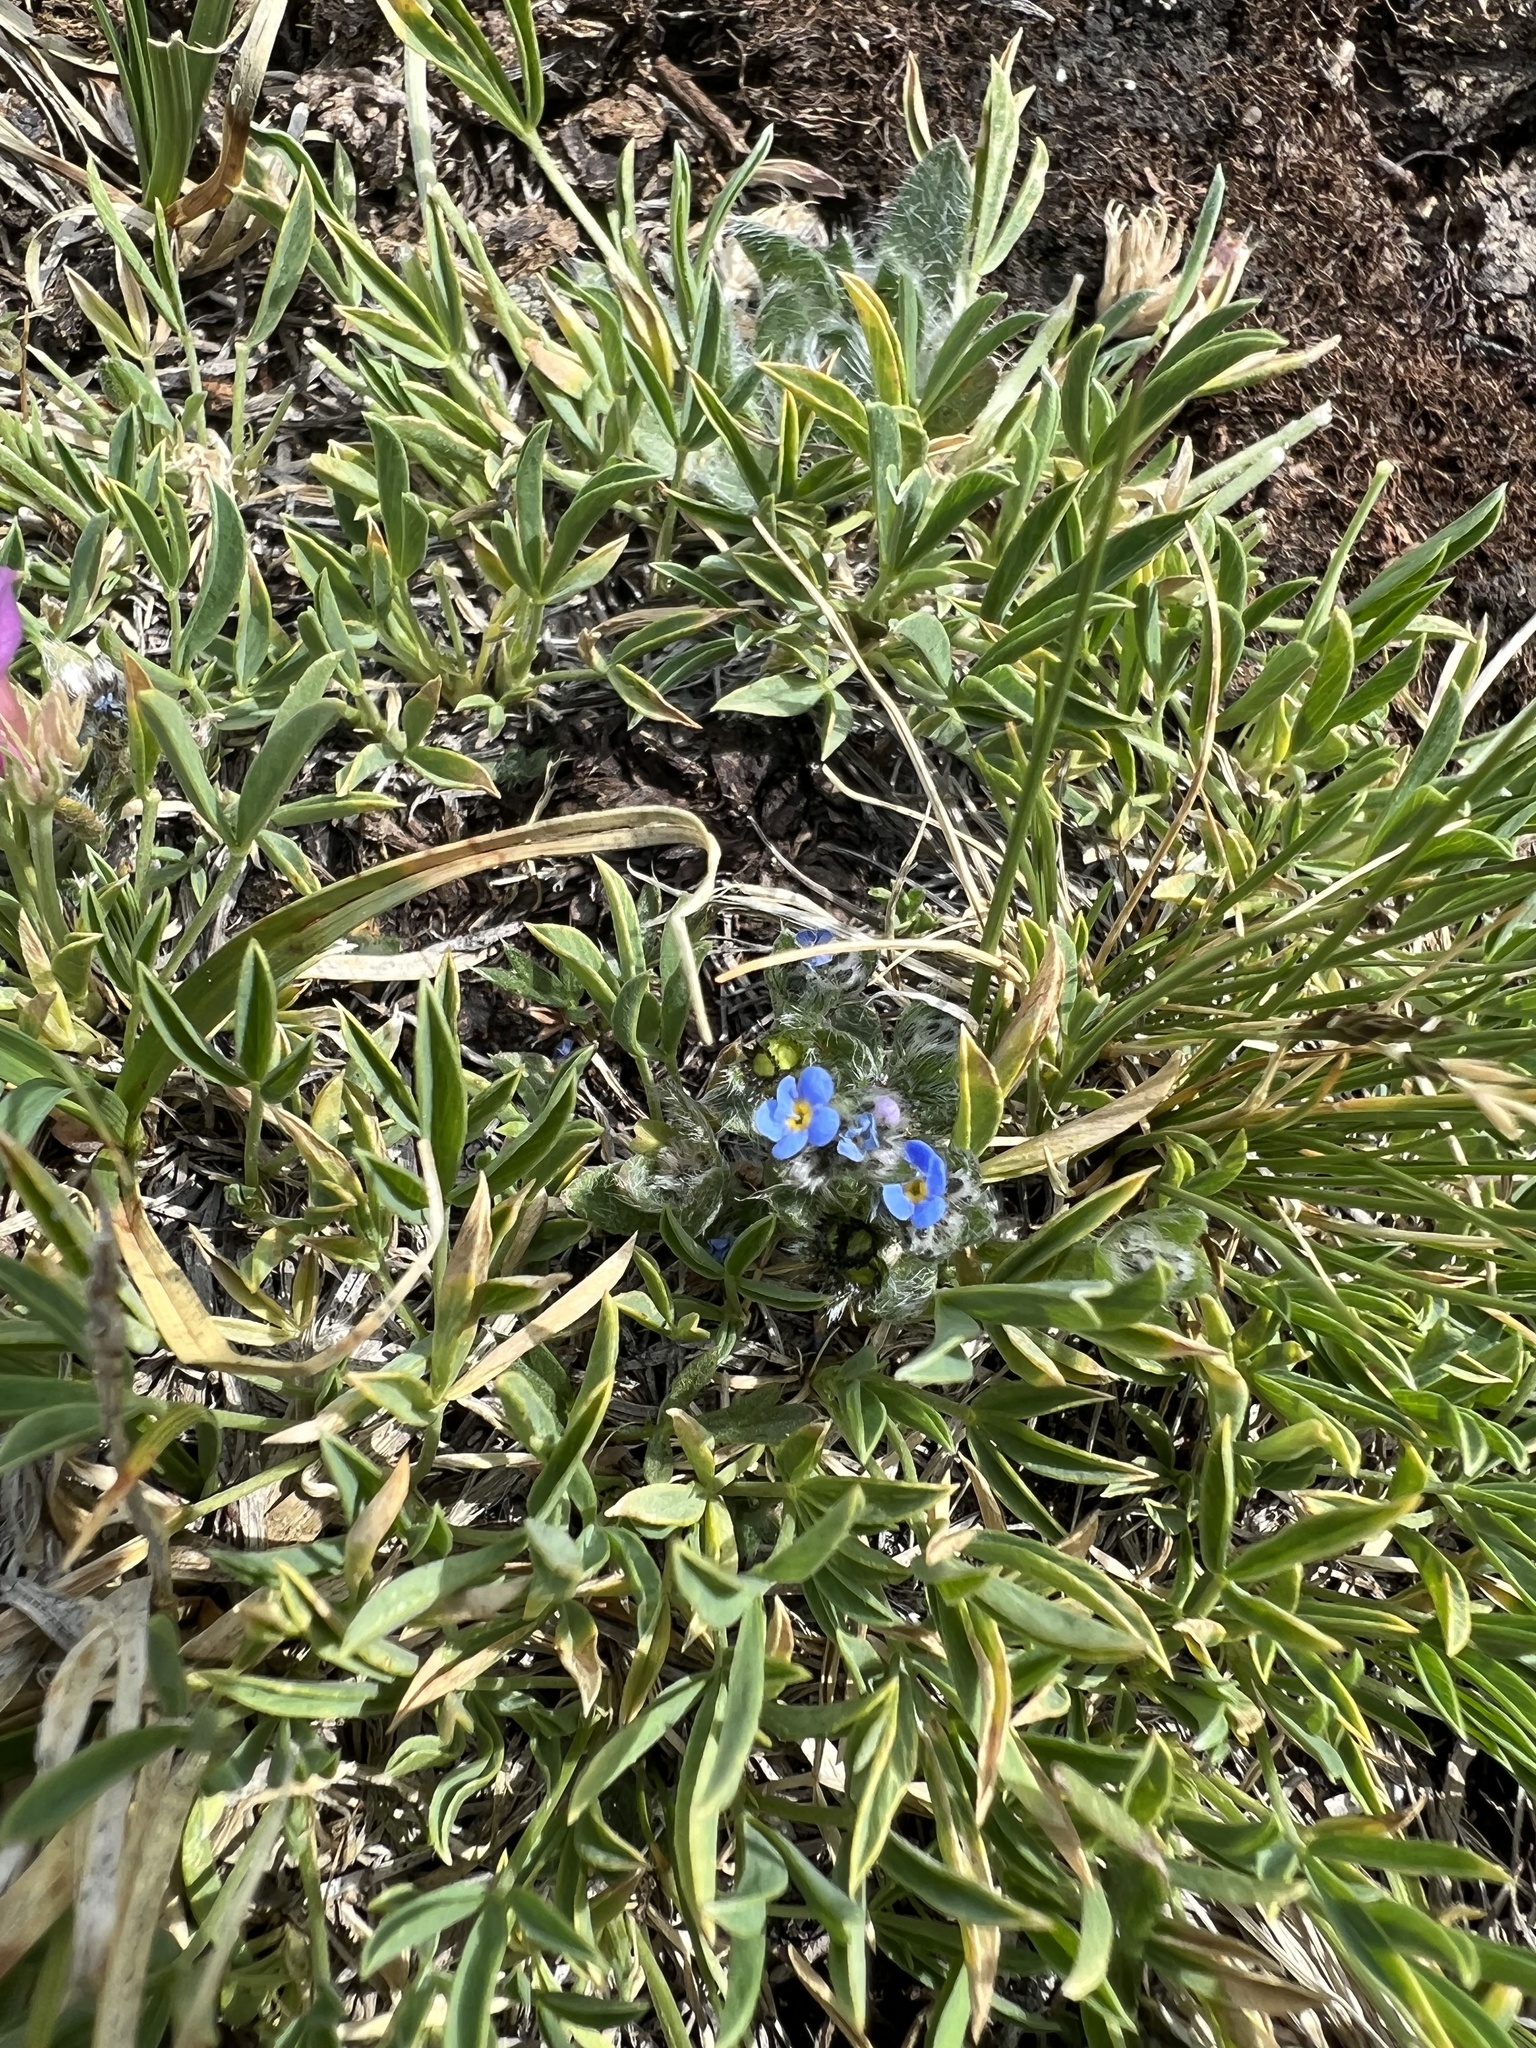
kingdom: Plantae
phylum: Tracheophyta
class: Magnoliopsida
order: Boraginales
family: Boraginaceae
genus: Eritrichium
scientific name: Eritrichium argenteum
